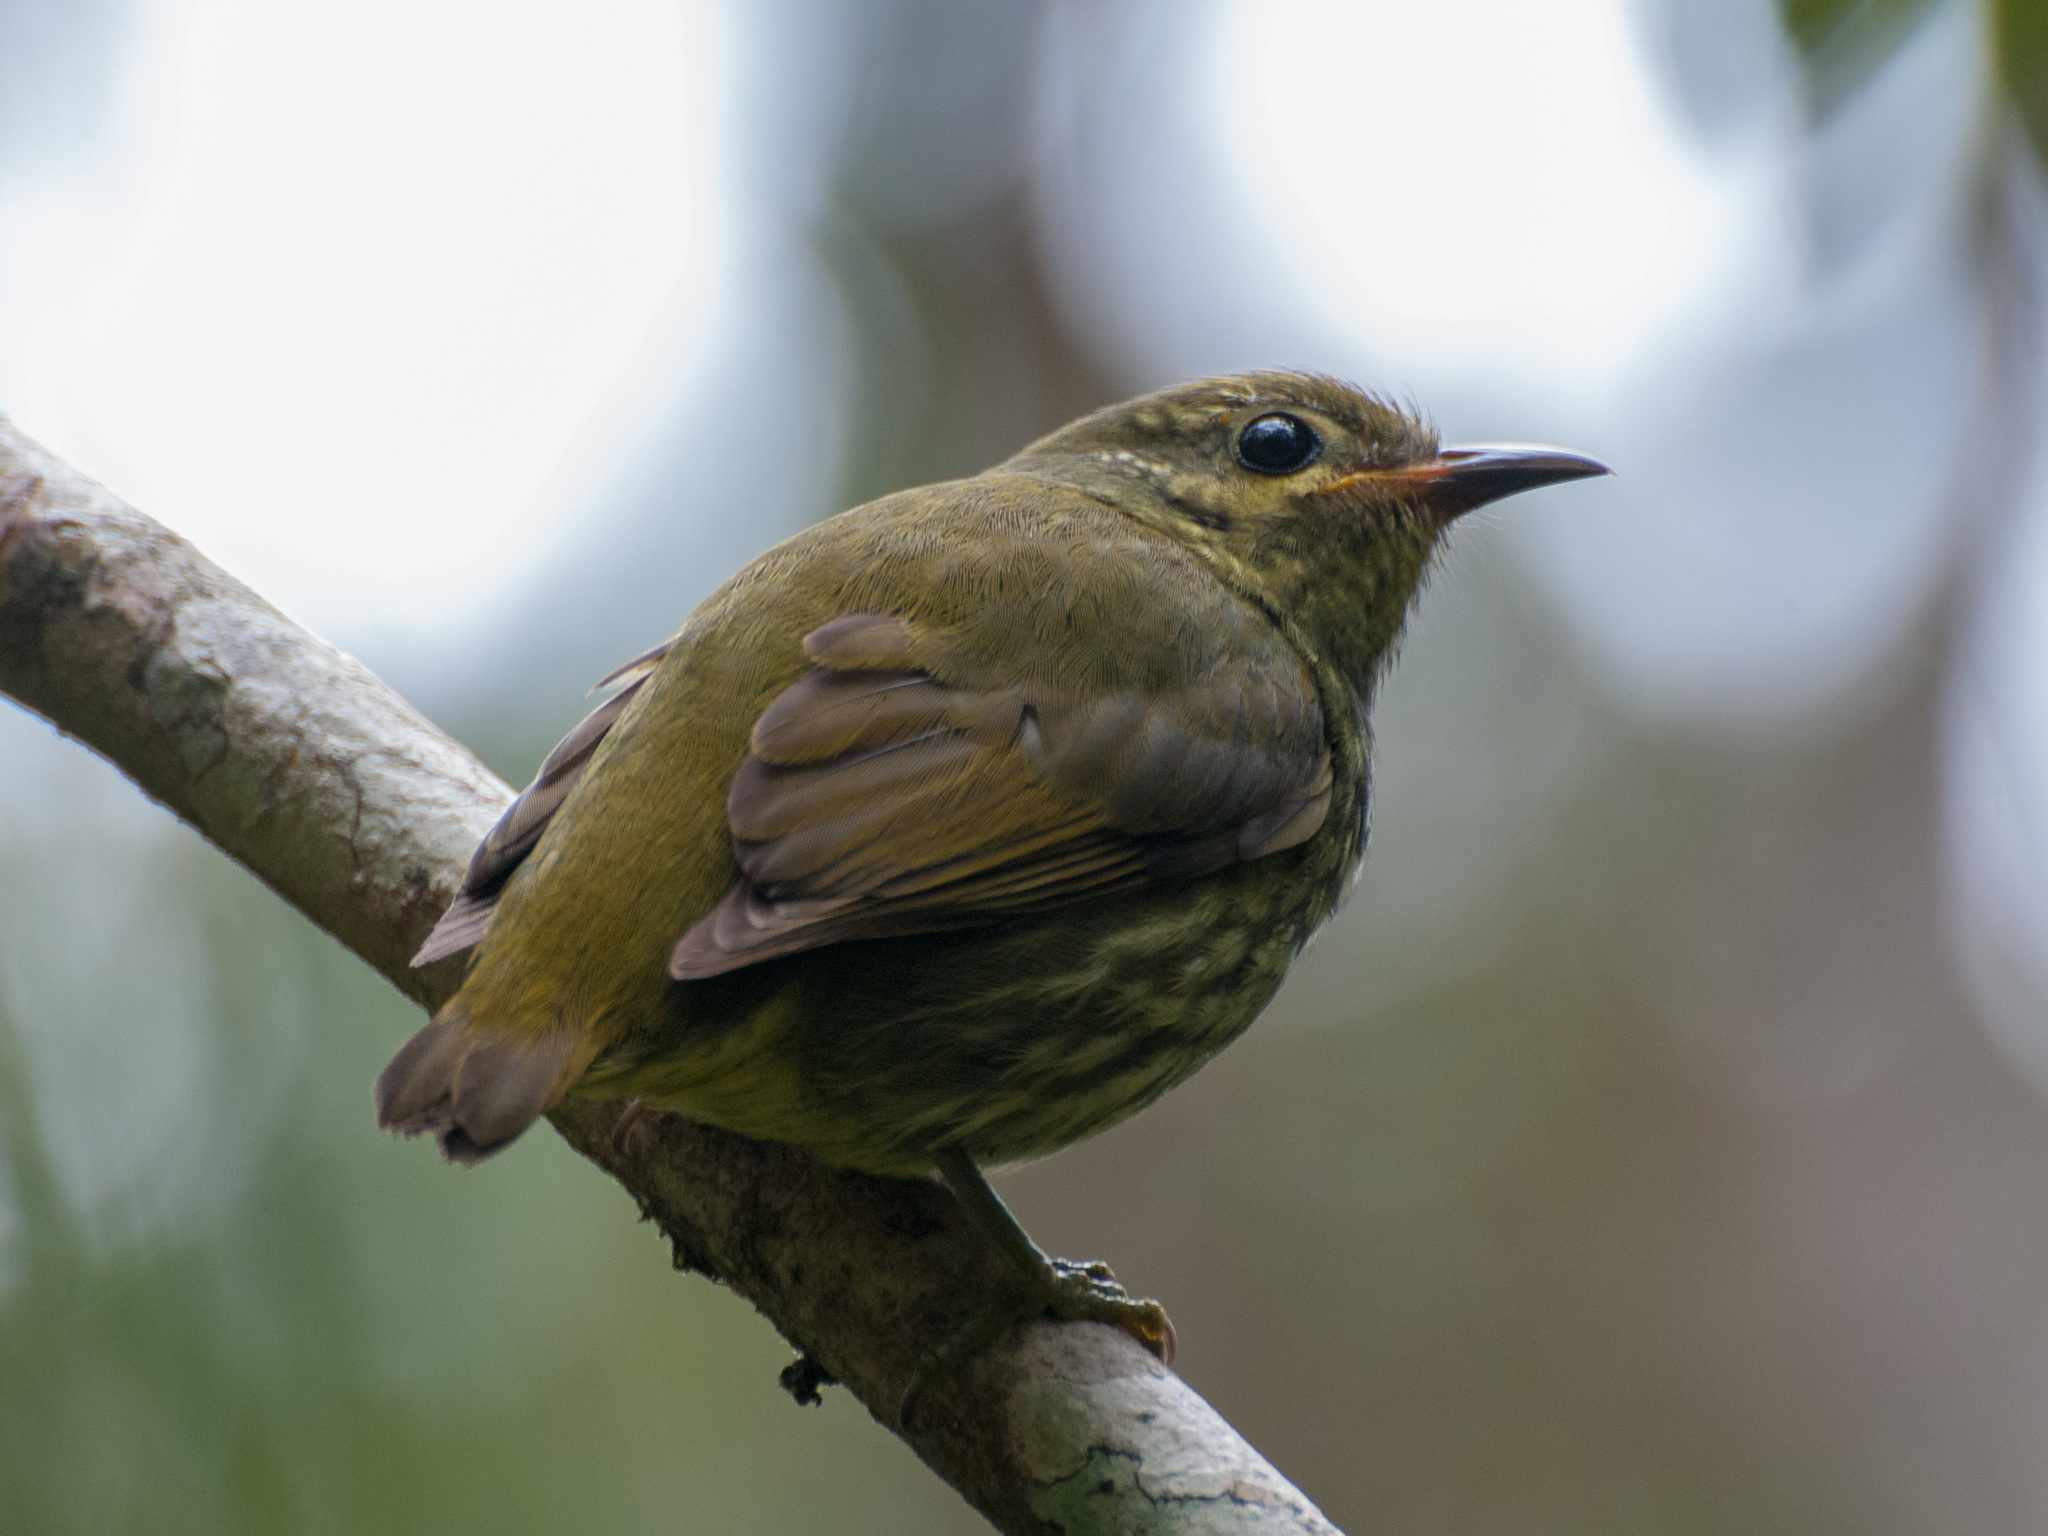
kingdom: Animalia
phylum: Chordata
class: Aves
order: Passeriformes
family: Philepittidae
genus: Philepitta
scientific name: Philepitta castanea
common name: Velvet asity
